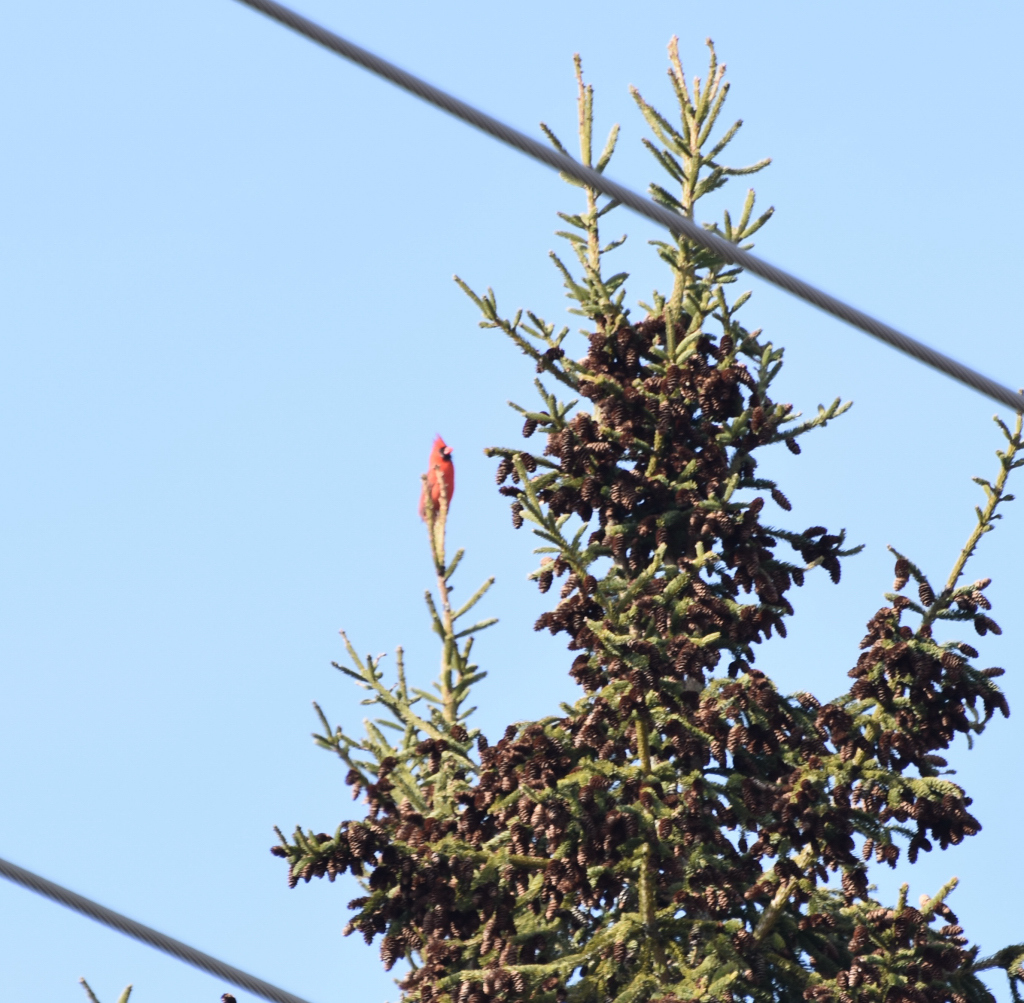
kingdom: Animalia
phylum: Chordata
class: Aves
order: Passeriformes
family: Cardinalidae
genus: Cardinalis
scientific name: Cardinalis cardinalis
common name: Northern cardinal
